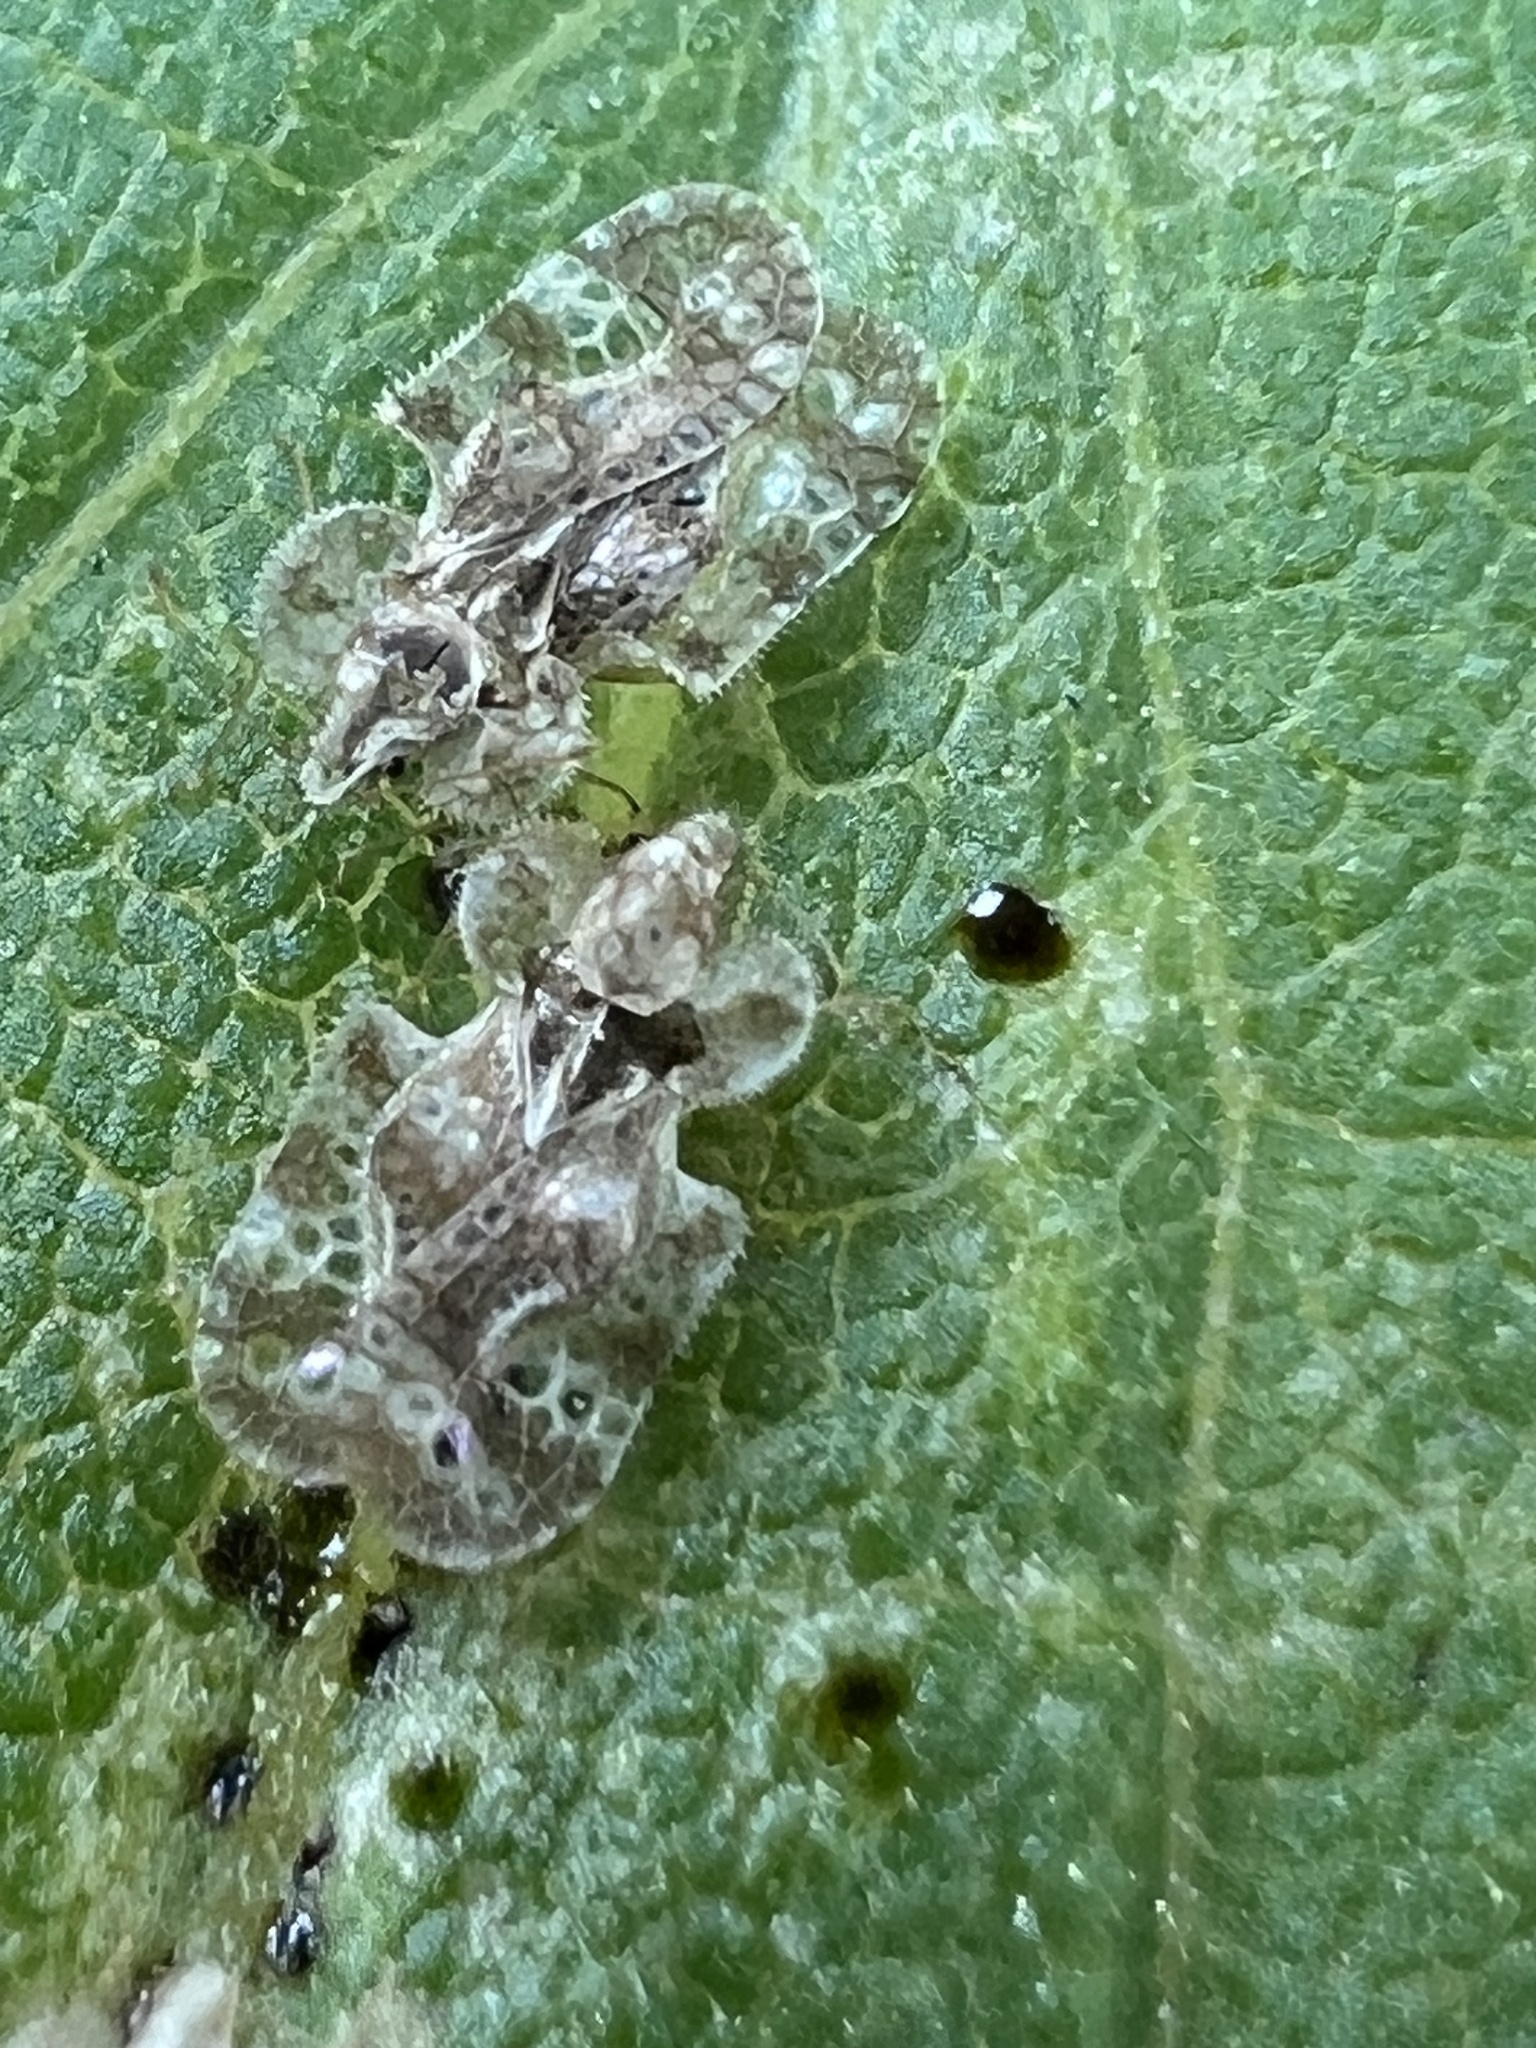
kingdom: Animalia
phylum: Arthropoda
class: Insecta
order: Hemiptera
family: Tingidae
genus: Corythucha
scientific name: Corythucha marmorata
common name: Chrysanthemum lace bug
